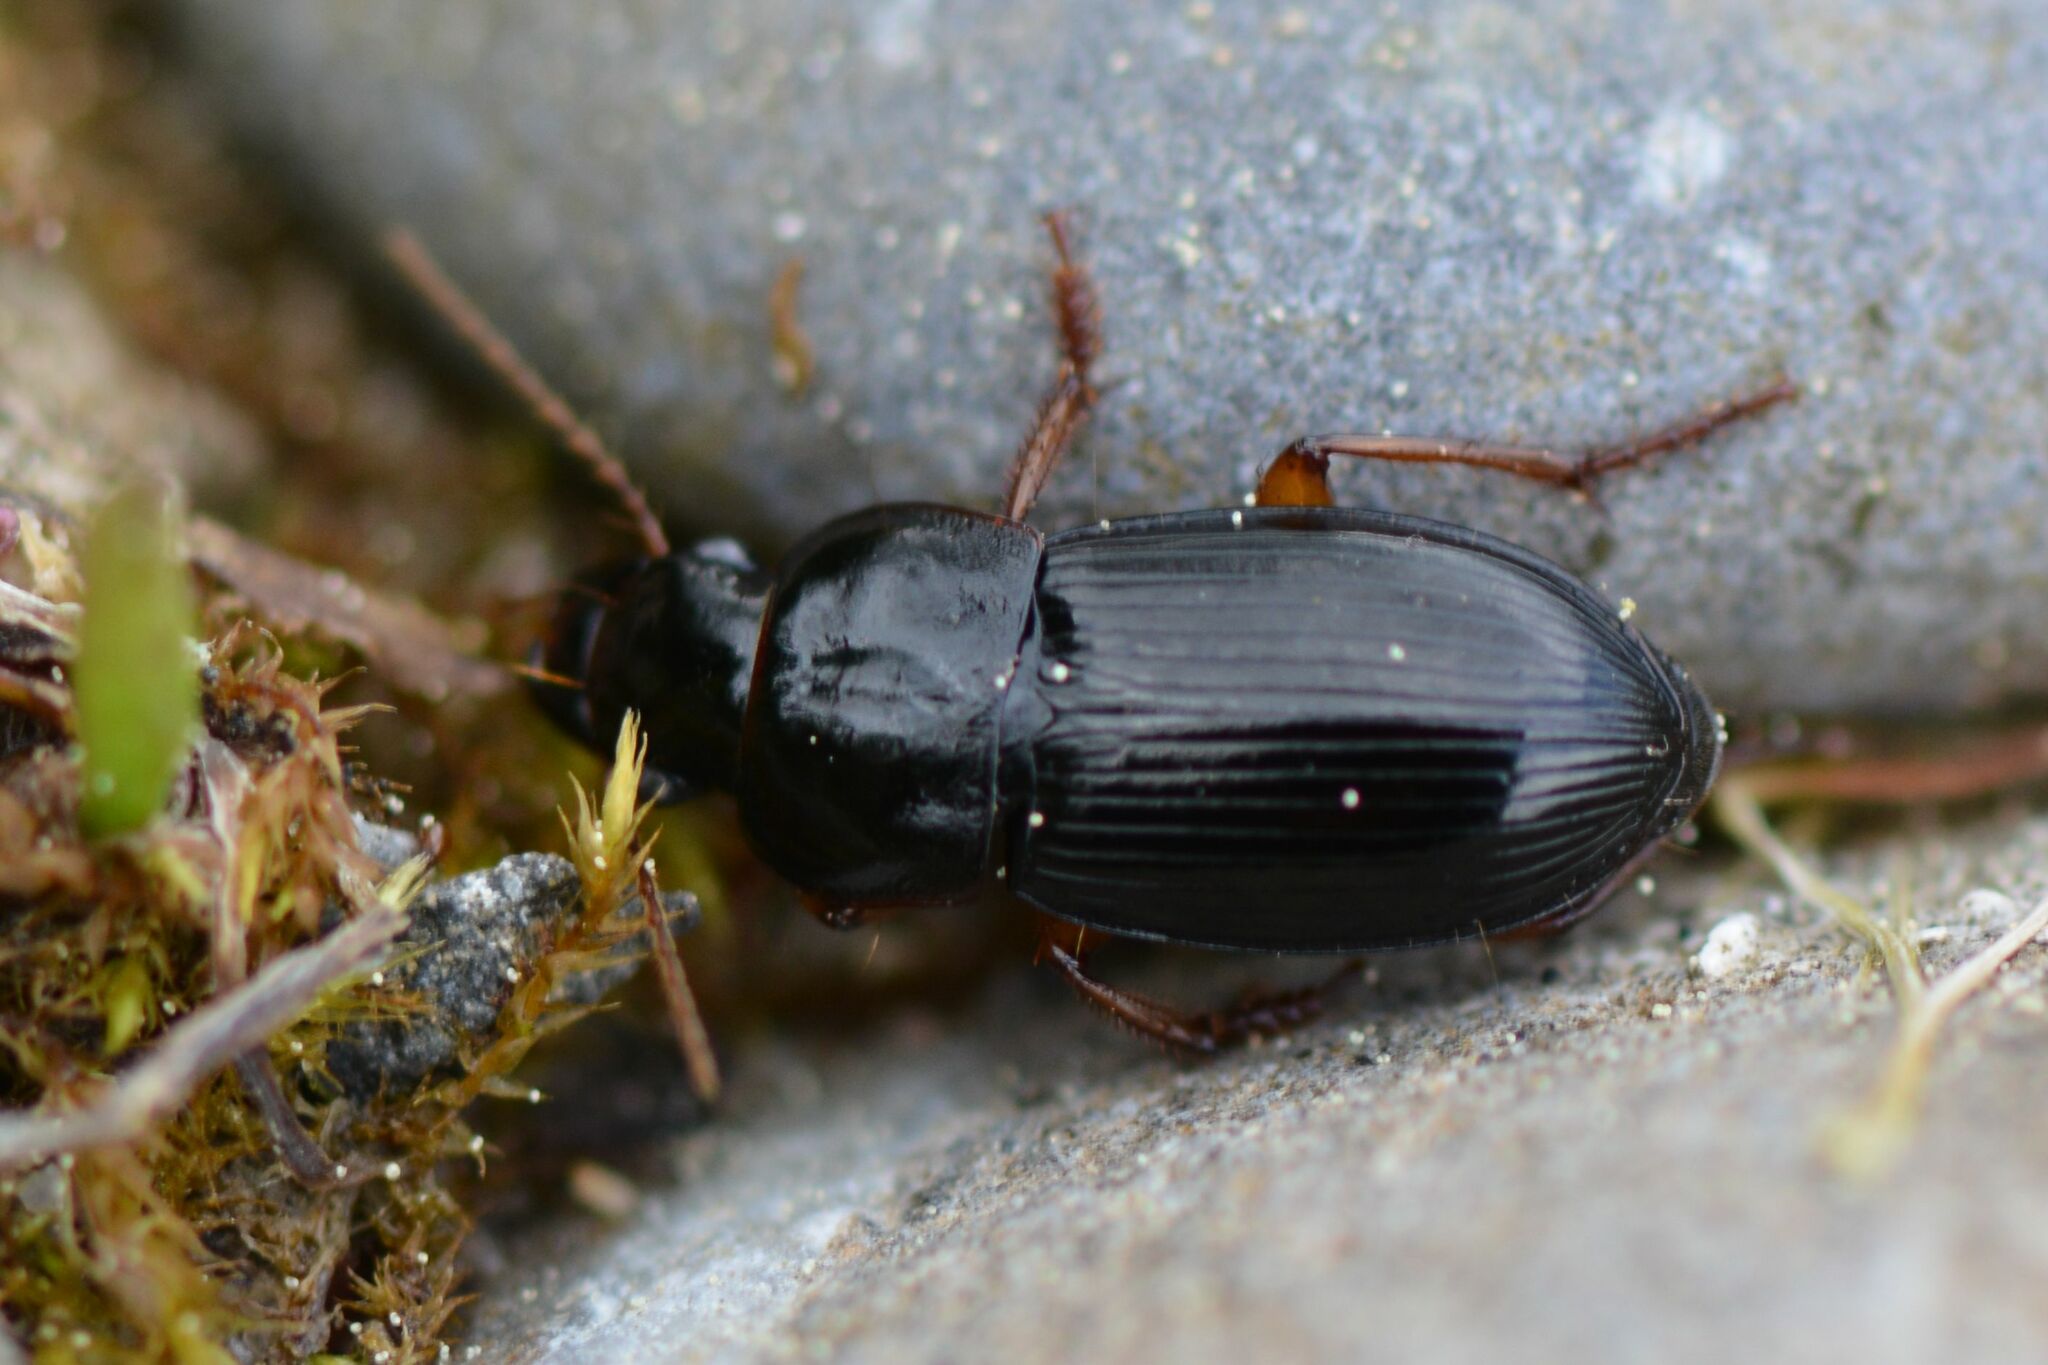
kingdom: Animalia
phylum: Arthropoda
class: Insecta
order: Coleoptera
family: Carabidae
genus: Harpalus
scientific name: Harpalus laevipes
